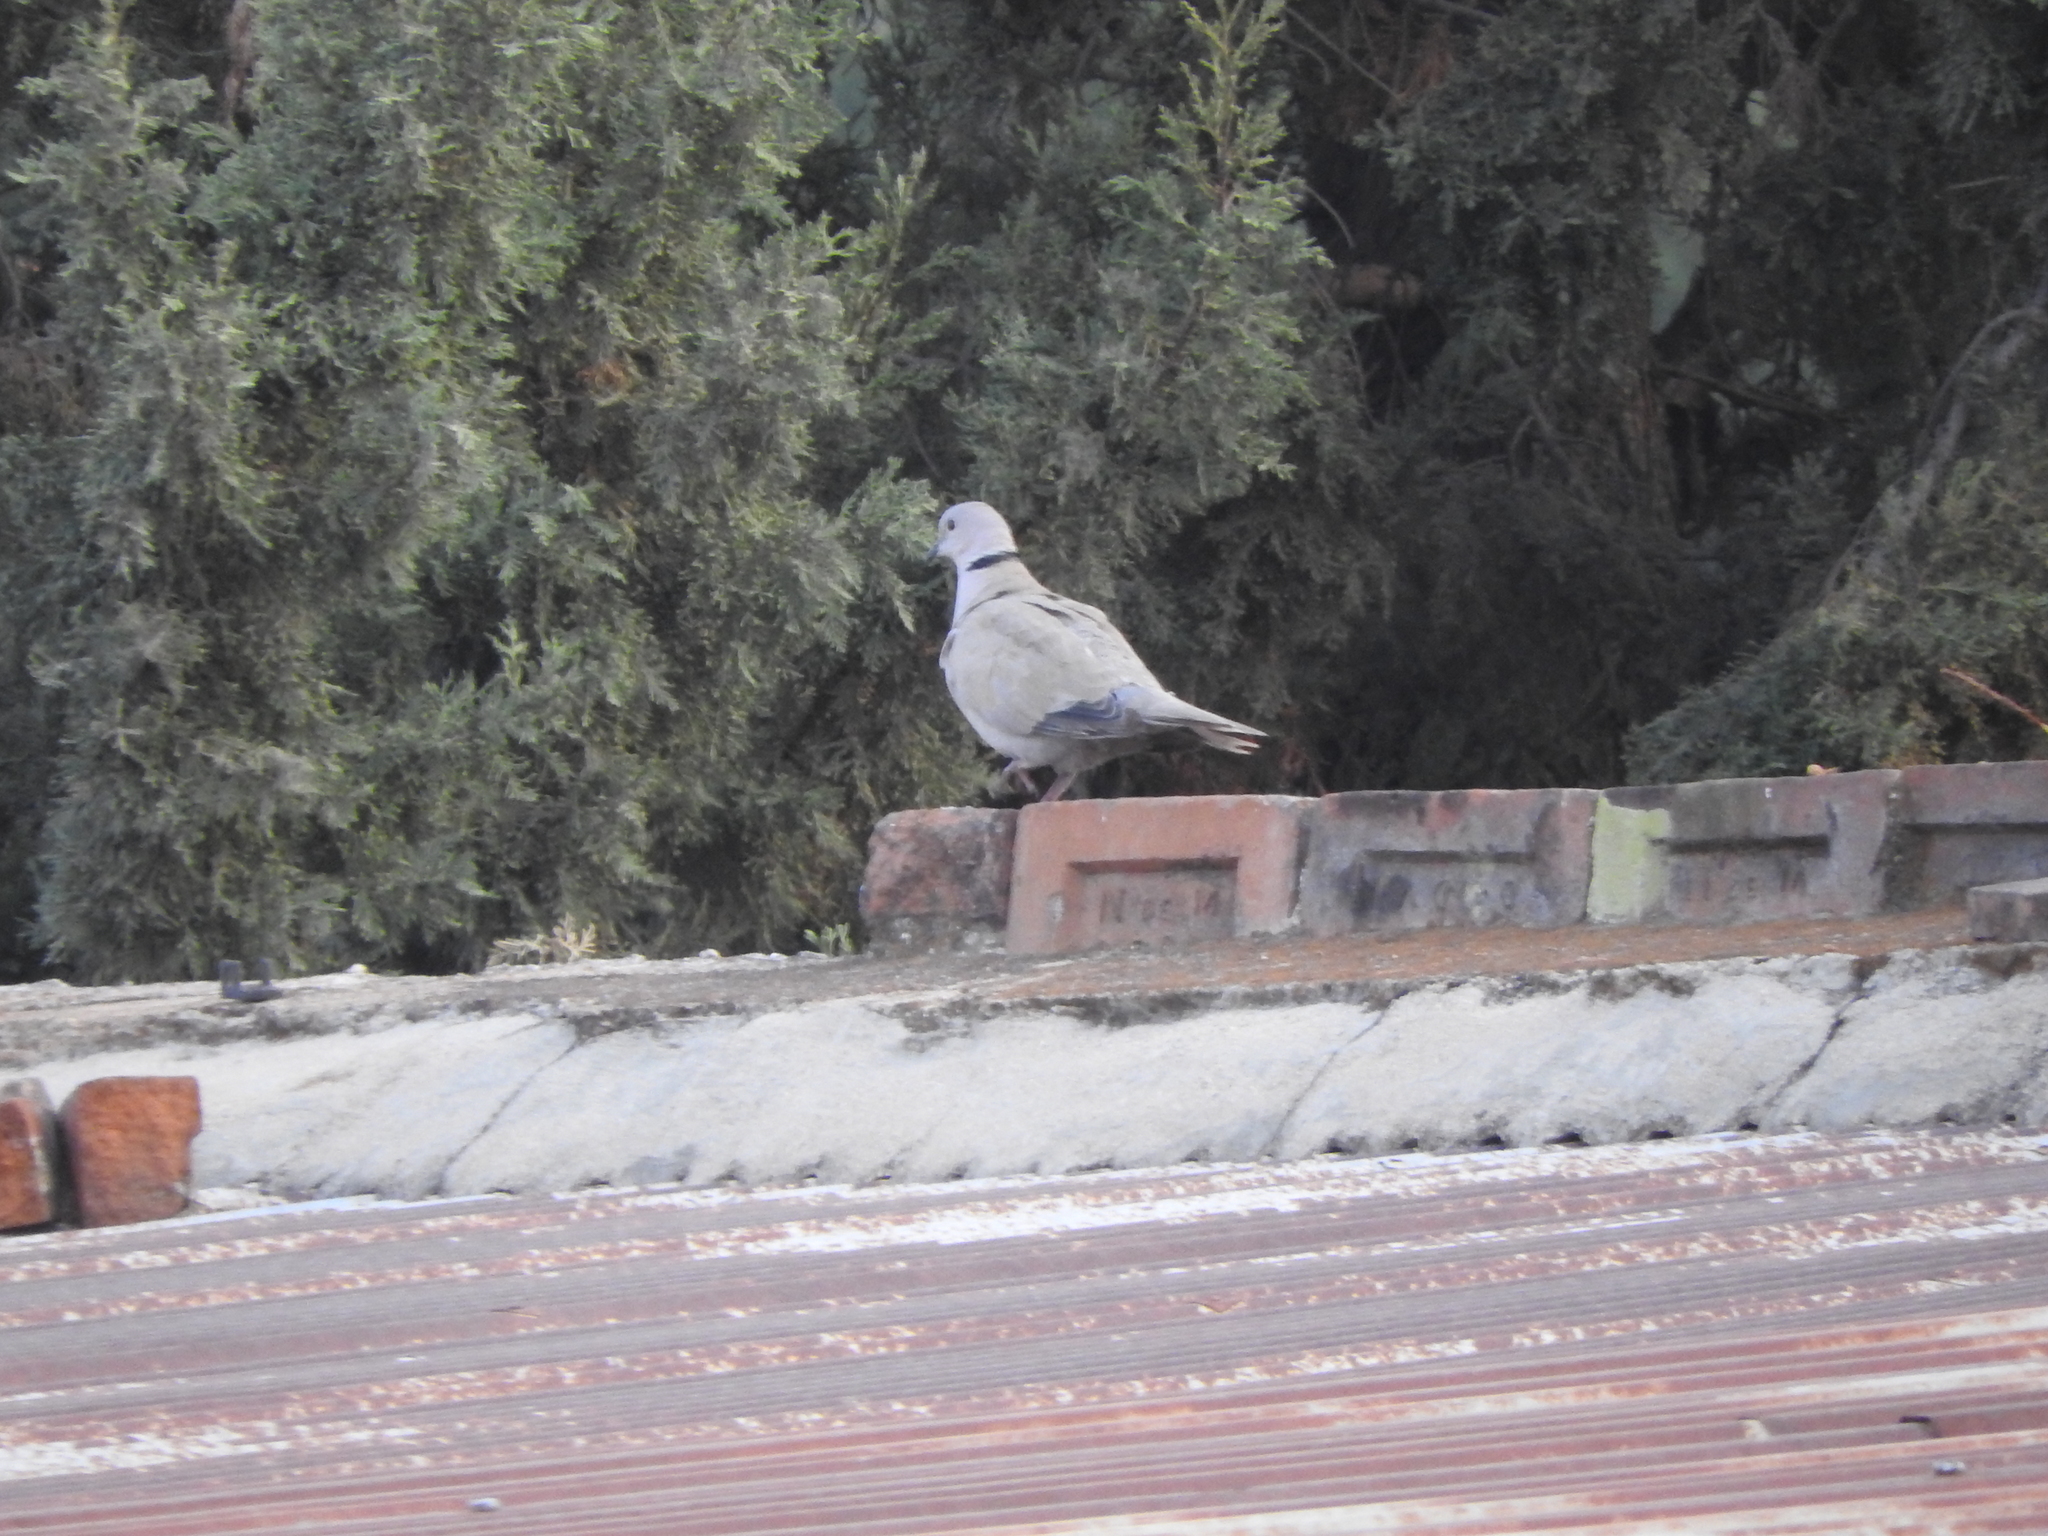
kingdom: Animalia
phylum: Chordata
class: Aves
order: Columbiformes
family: Columbidae
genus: Streptopelia
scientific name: Streptopelia decaocto
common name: Eurasian collared dove
